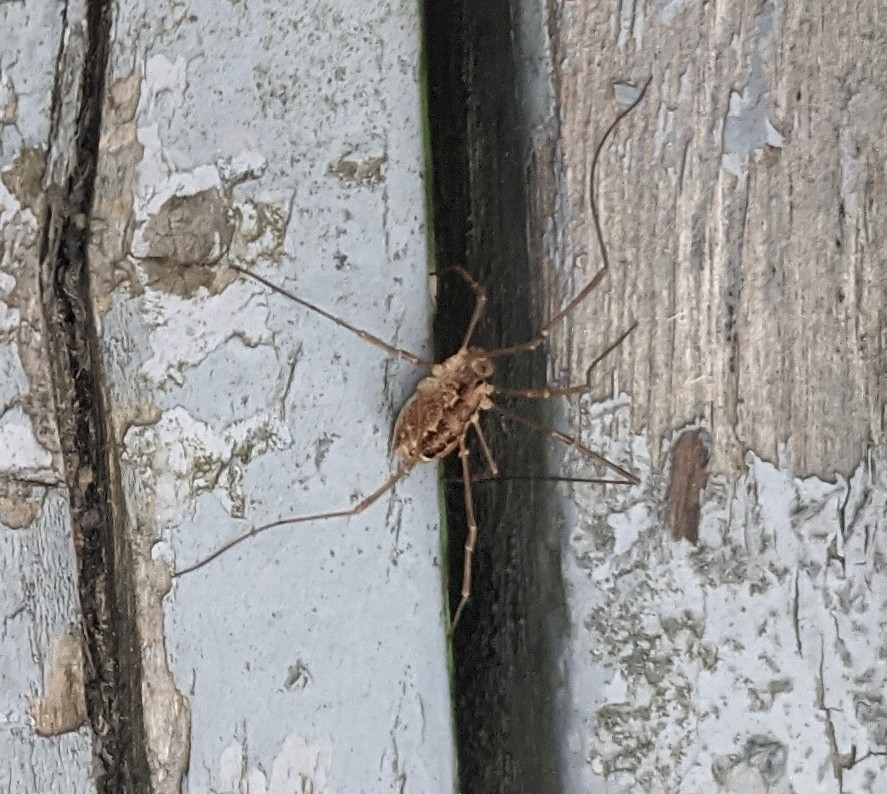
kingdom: Animalia
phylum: Arthropoda
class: Arachnida
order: Opiliones
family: Phalangiidae
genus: Rilaena
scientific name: Rilaena triangularis
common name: Spring harvestman
